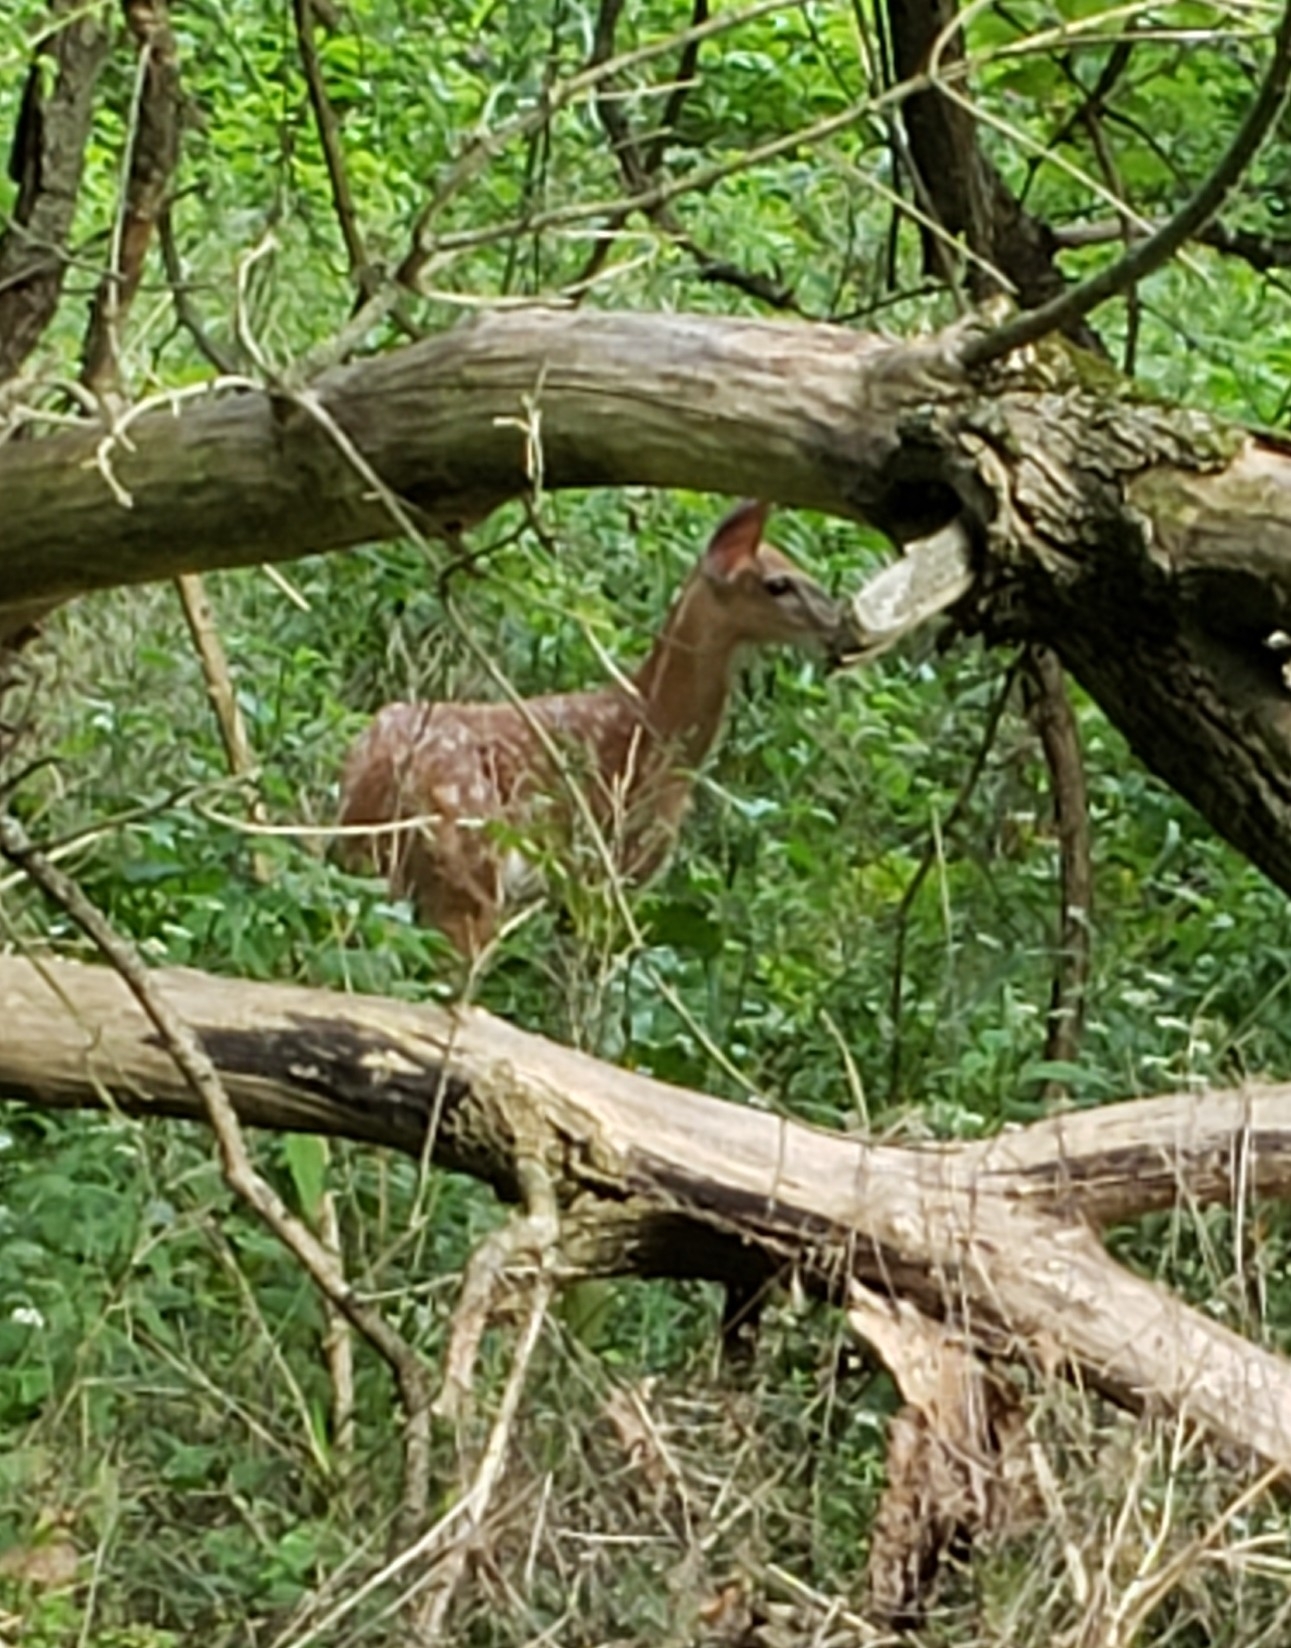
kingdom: Animalia
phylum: Chordata
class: Mammalia
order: Artiodactyla
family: Cervidae
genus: Odocoileus
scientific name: Odocoileus virginianus
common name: White-tailed deer
